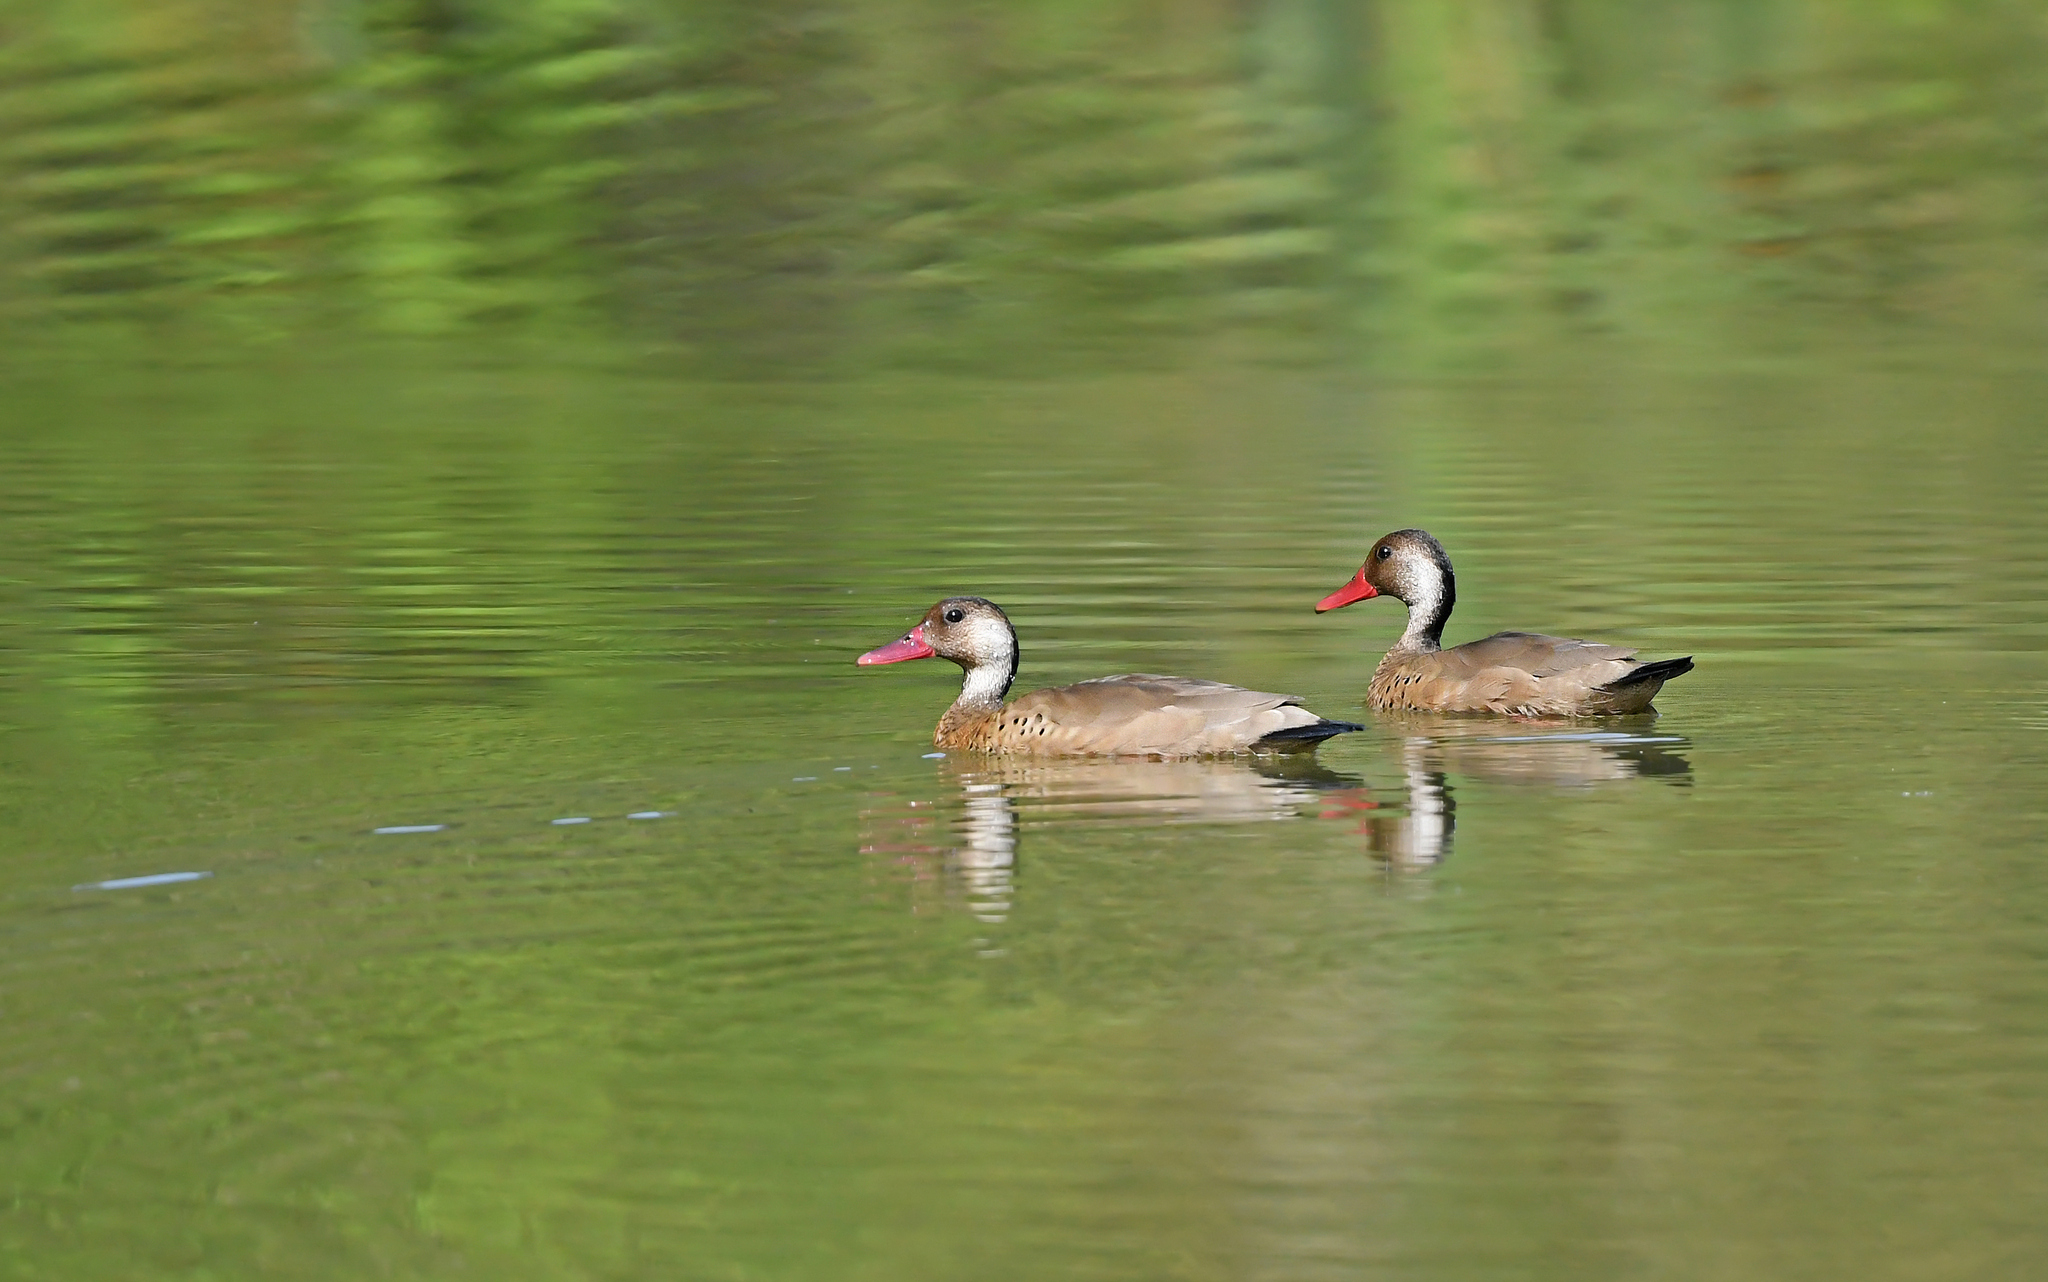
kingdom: Animalia
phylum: Chordata
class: Aves
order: Anseriformes
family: Anatidae
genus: Amazonetta
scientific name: Amazonetta brasiliensis
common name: Brazilian teal
